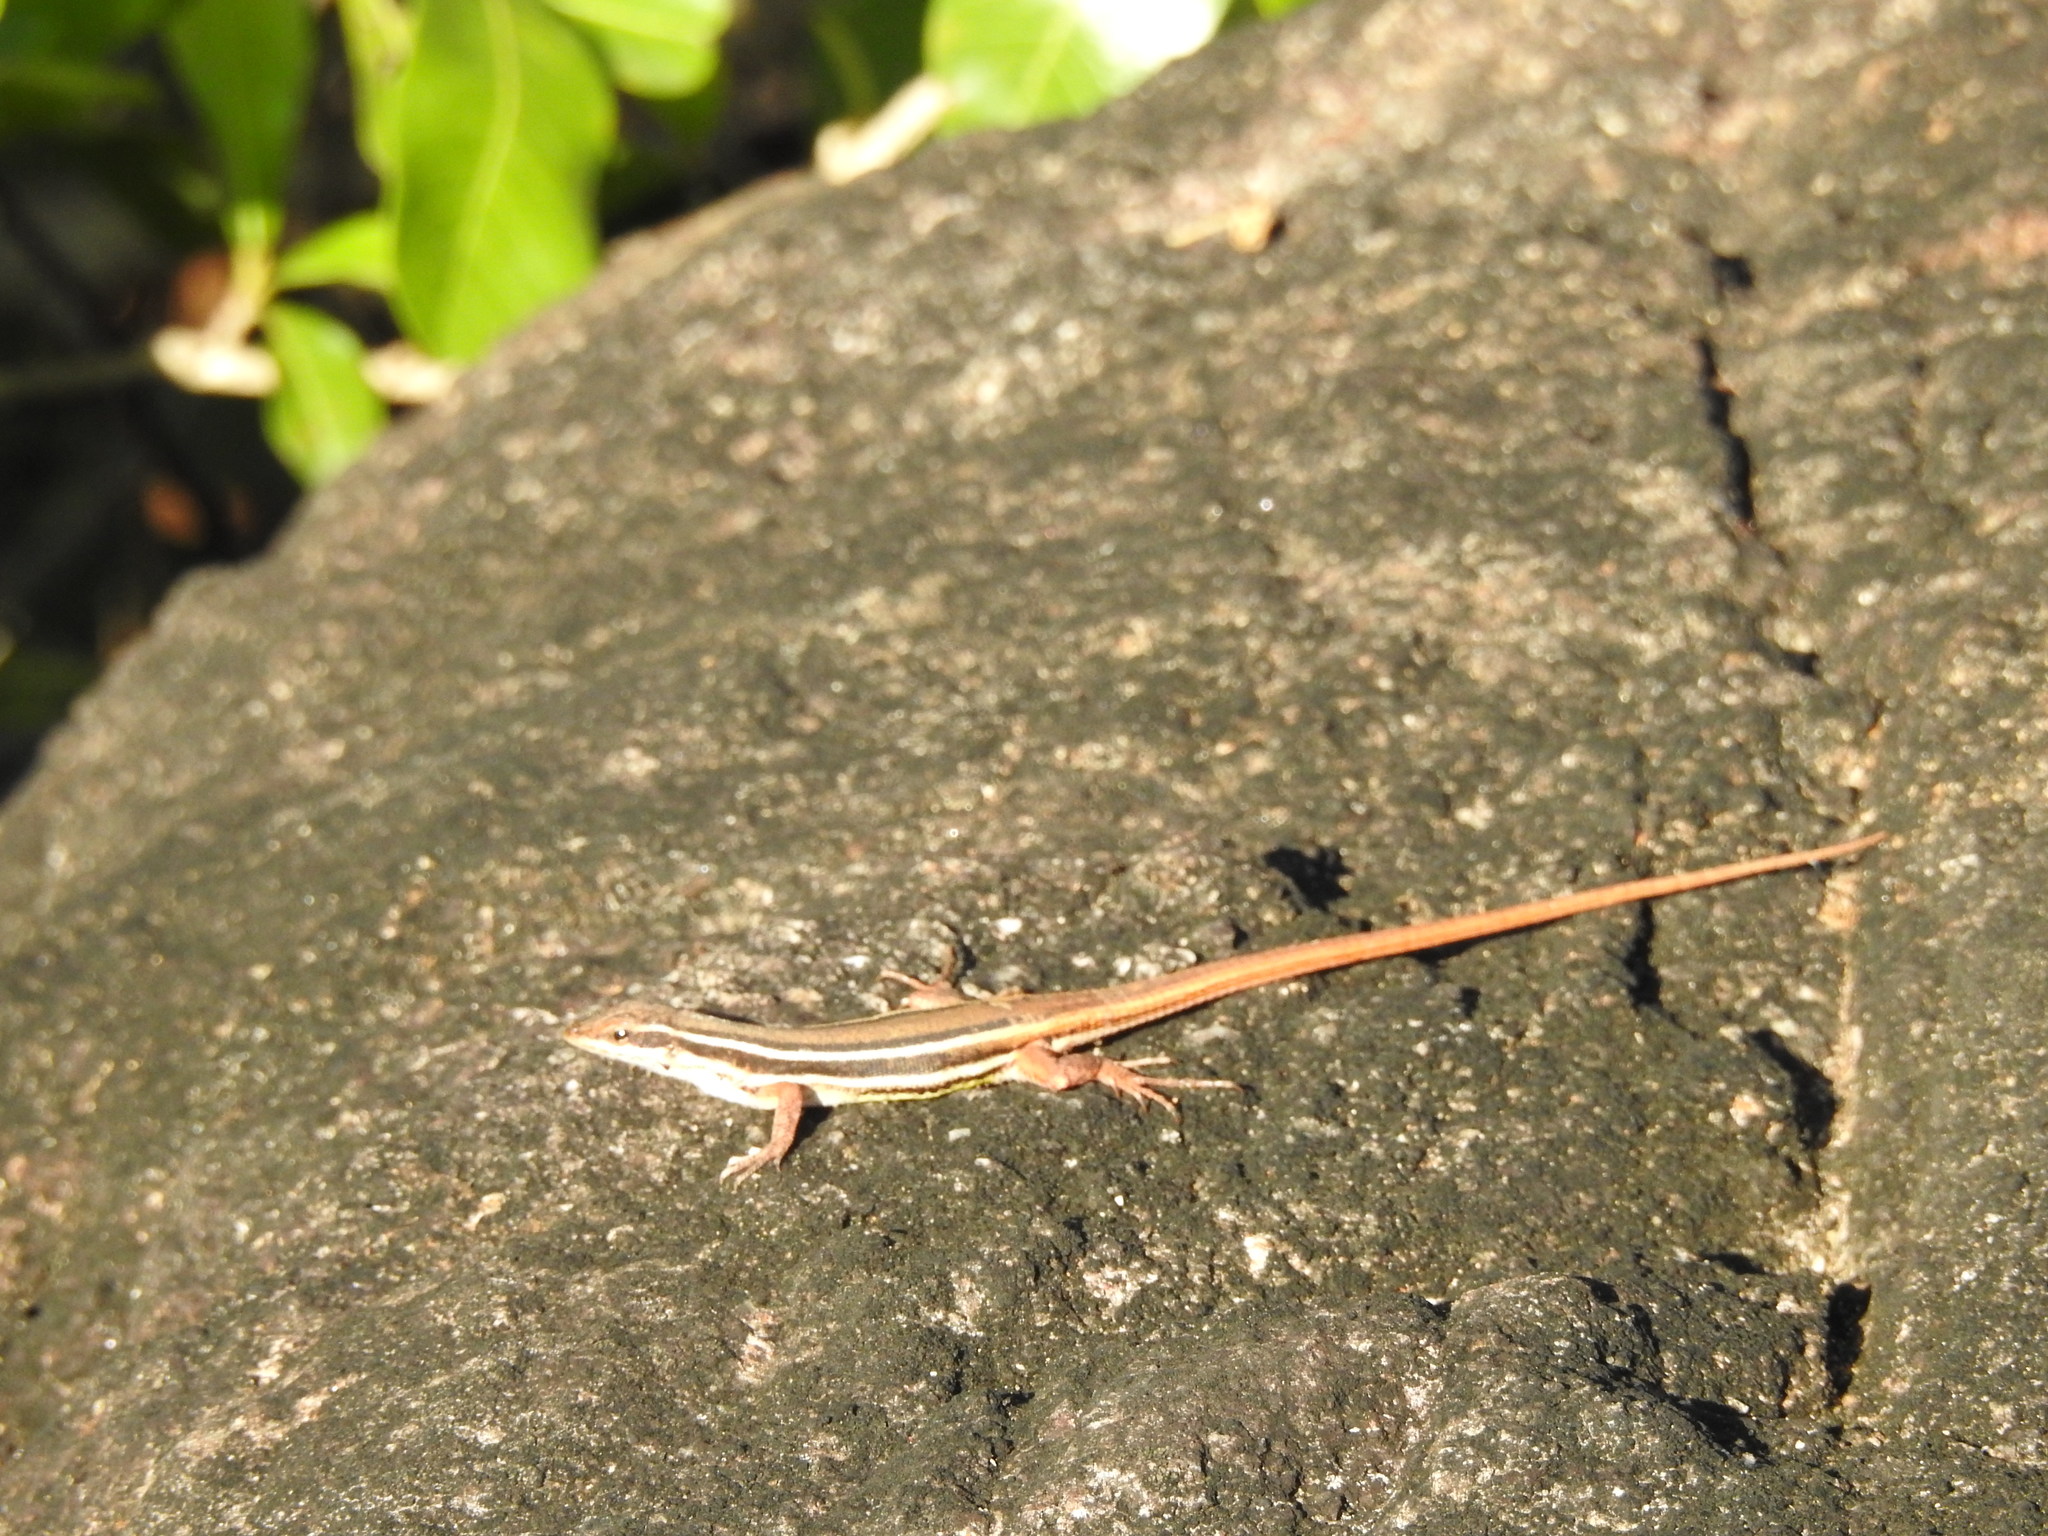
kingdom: Animalia
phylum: Chordata
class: Squamata
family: Lacertidae
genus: Ophisops
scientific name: Ophisops leschenaultii
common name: Leschenault's cabrita
